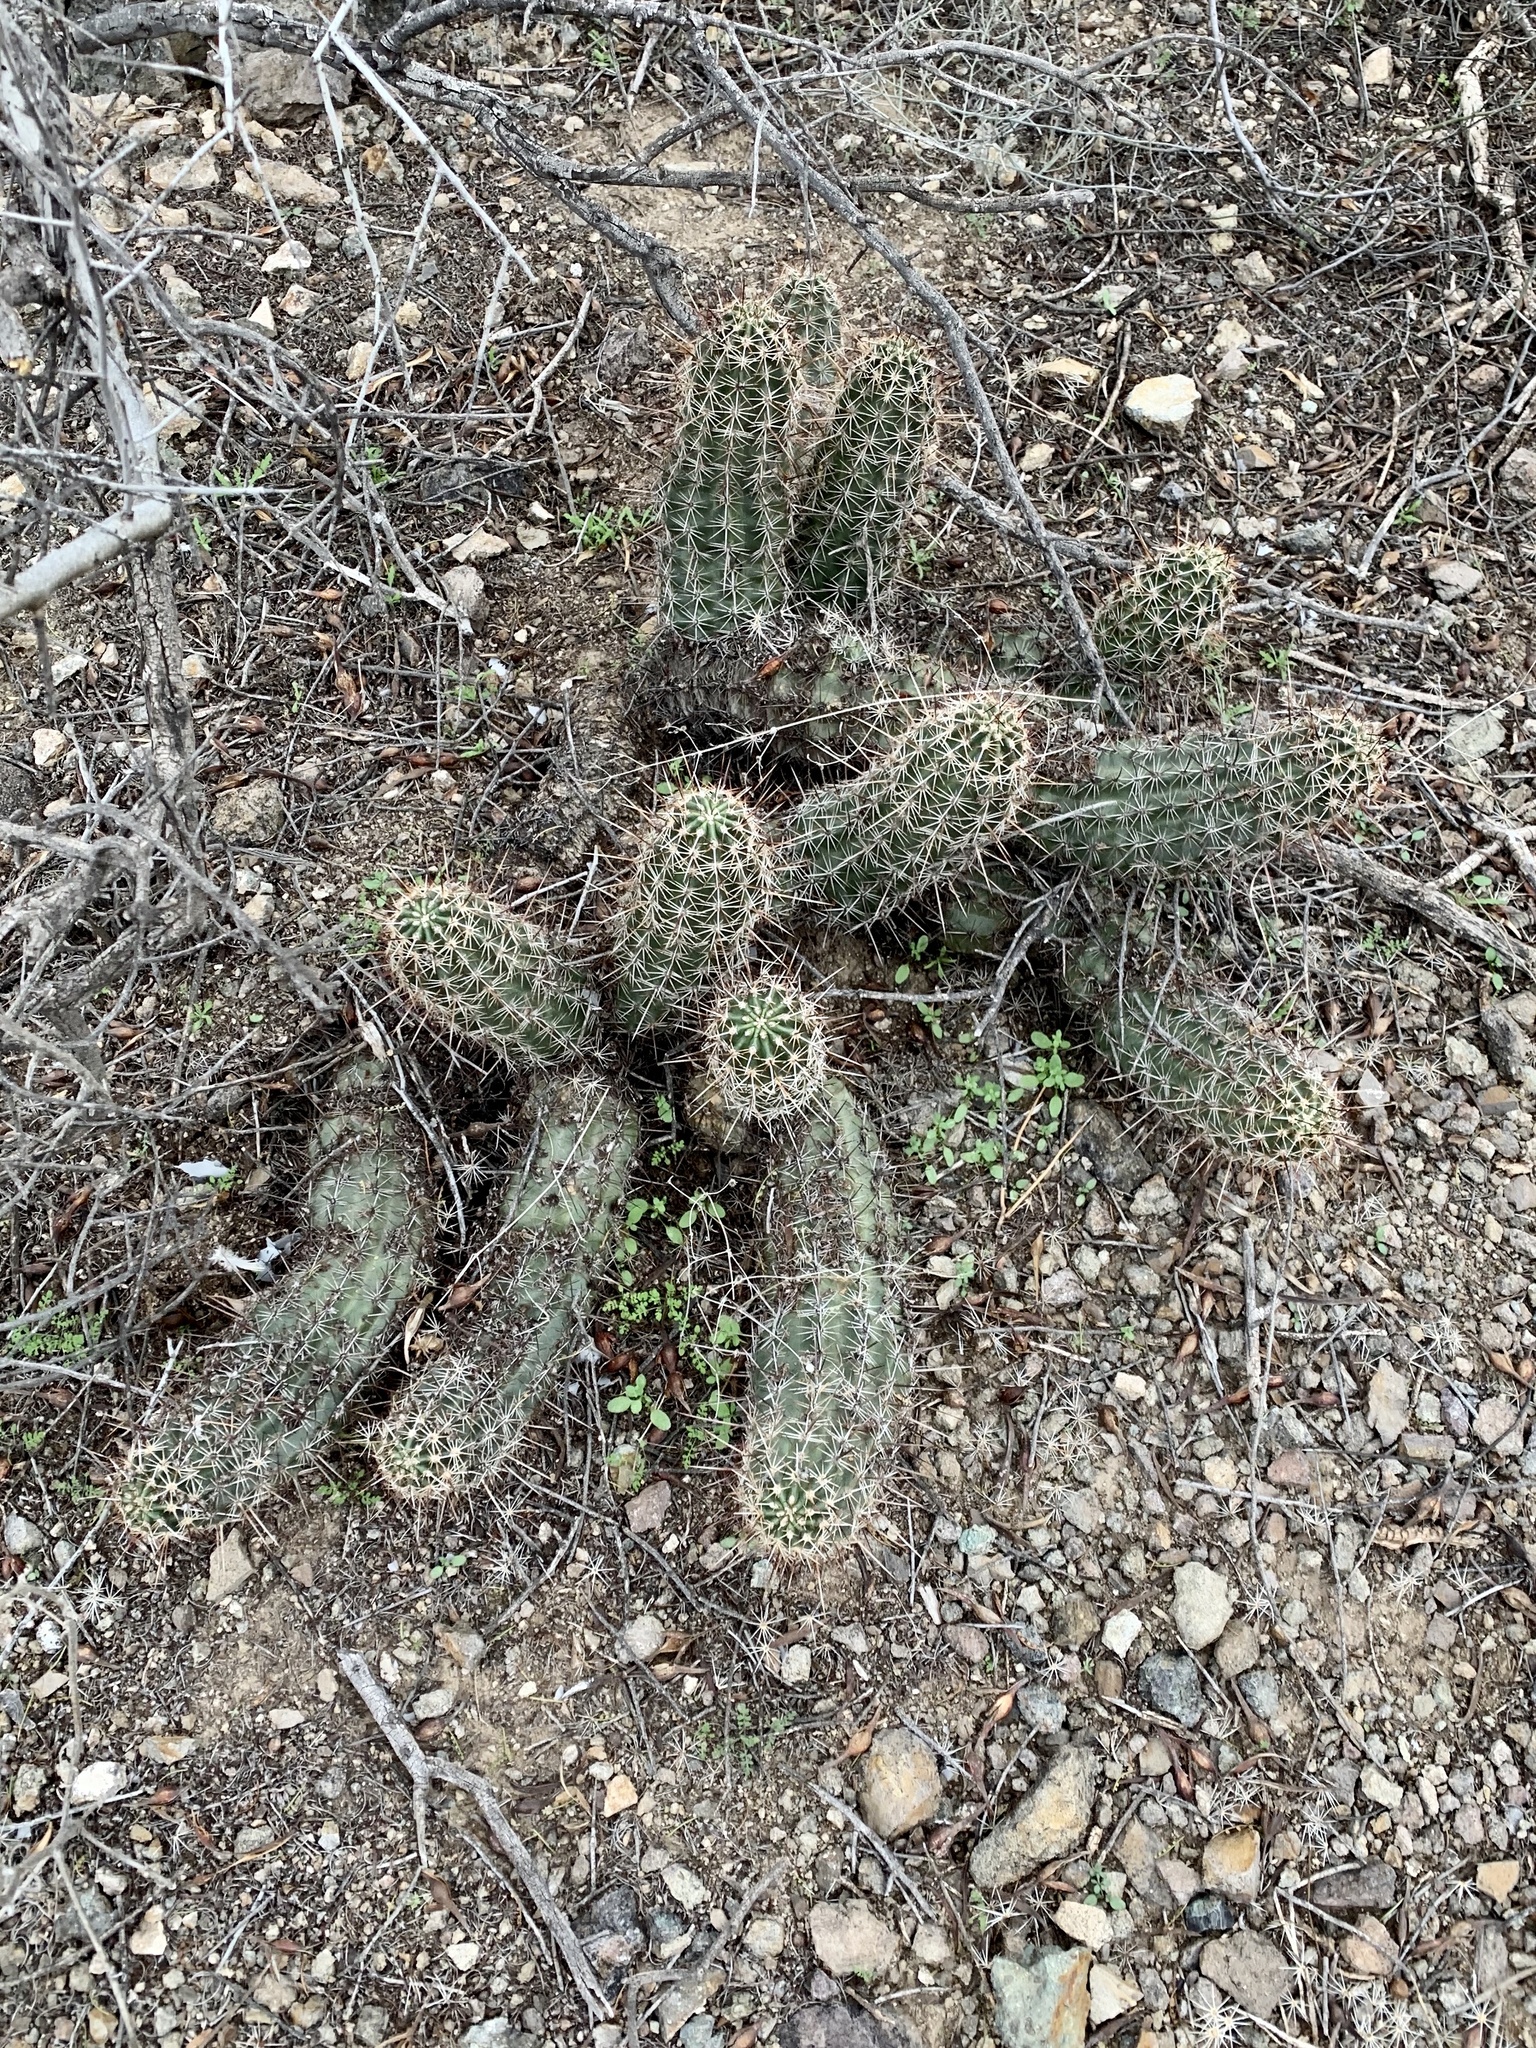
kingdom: Plantae
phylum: Tracheophyta
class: Magnoliopsida
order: Caryophyllales
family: Cactaceae
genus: Echinocereus
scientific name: Echinocereus fasciculatus
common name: Bundle hedgehog
